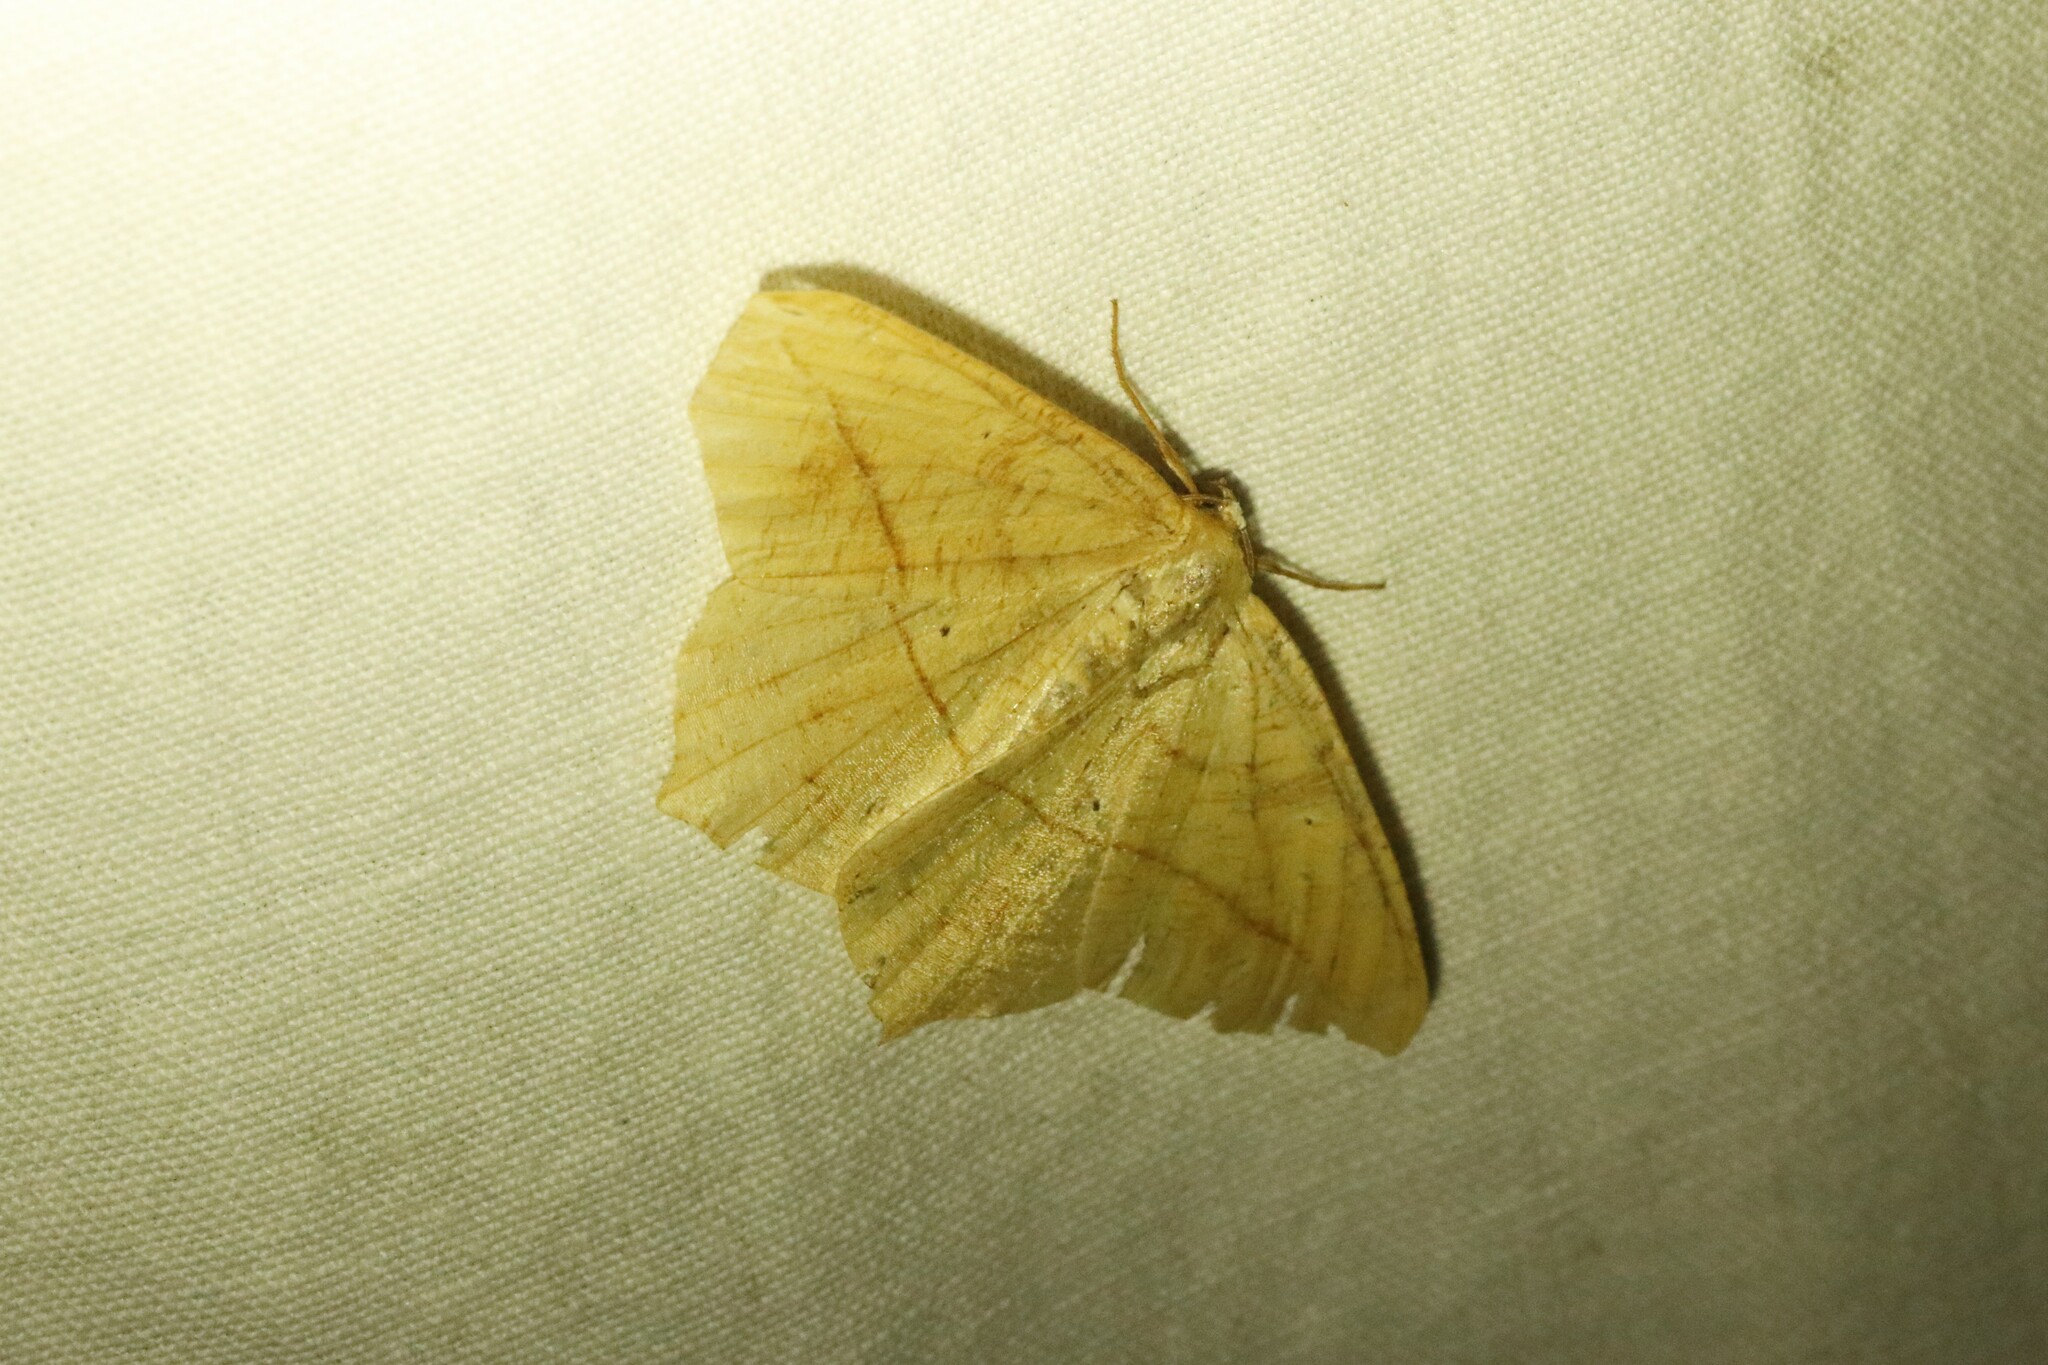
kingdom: Animalia
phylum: Arthropoda
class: Insecta
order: Lepidoptera
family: Geometridae
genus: Prochoerodes
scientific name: Prochoerodes lineola
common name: Large maple spanworm
